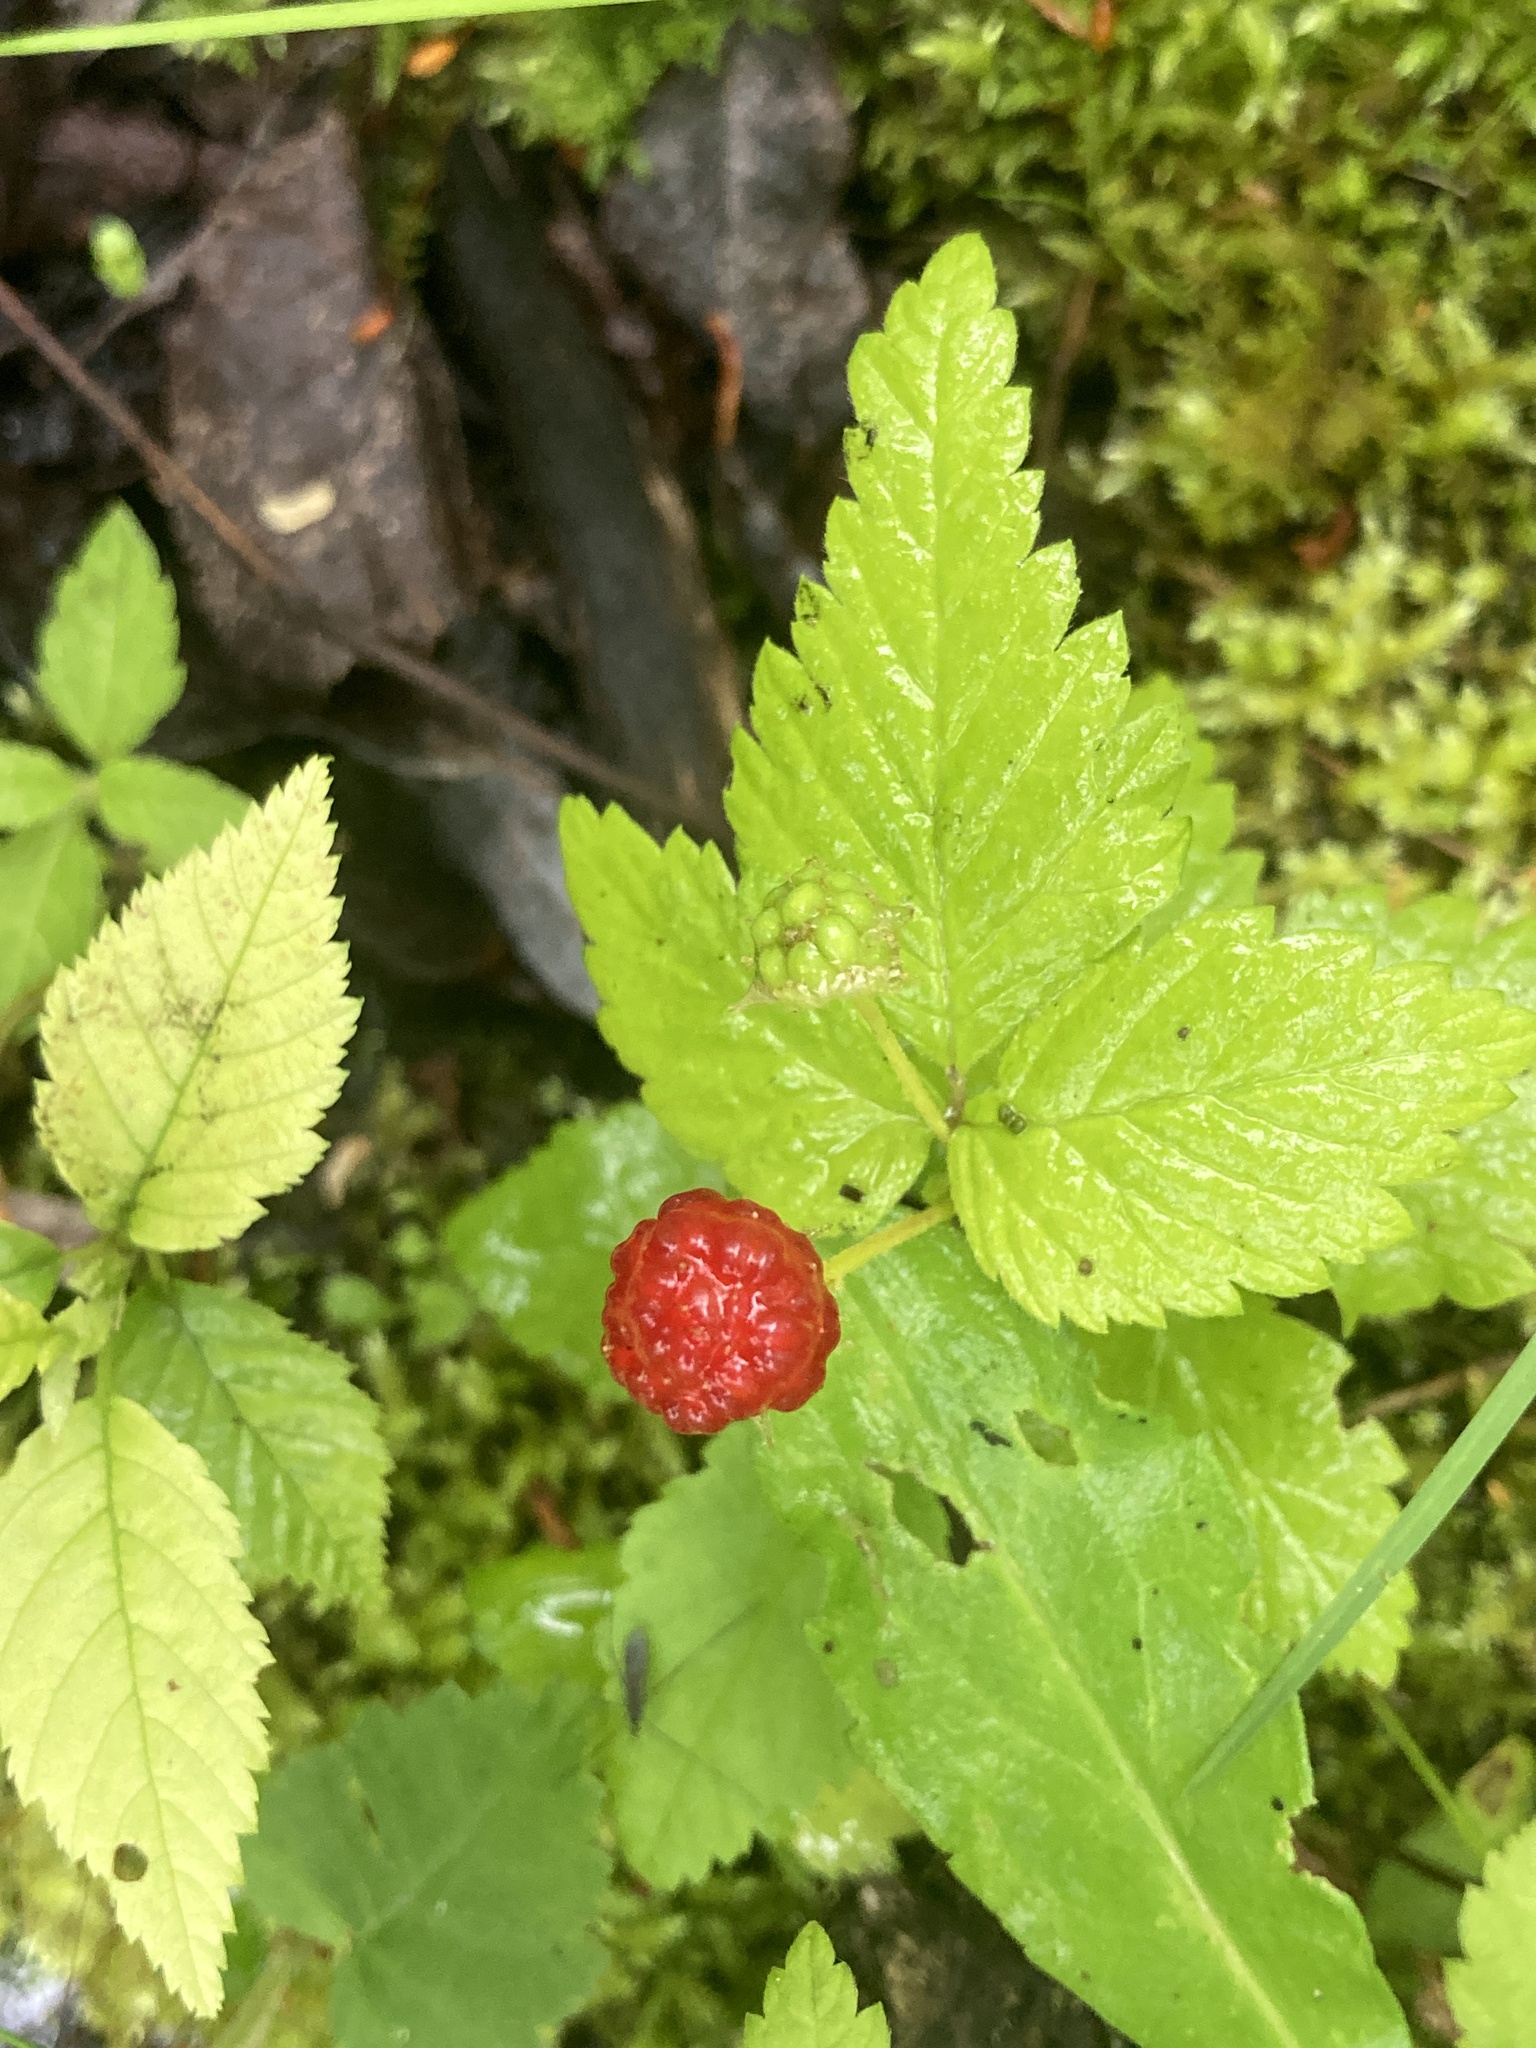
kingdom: Plantae
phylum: Tracheophyta
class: Magnoliopsida
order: Rosales
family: Rosaceae
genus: Rubus
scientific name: Rubus pubescens
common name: Dwarf raspberry
